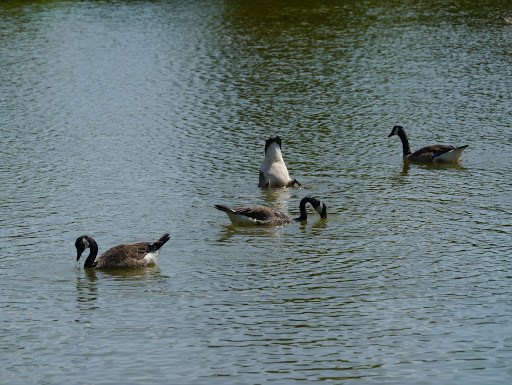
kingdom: Animalia
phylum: Chordata
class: Aves
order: Anseriformes
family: Anatidae
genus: Branta
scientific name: Branta canadensis
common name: Canada goose
